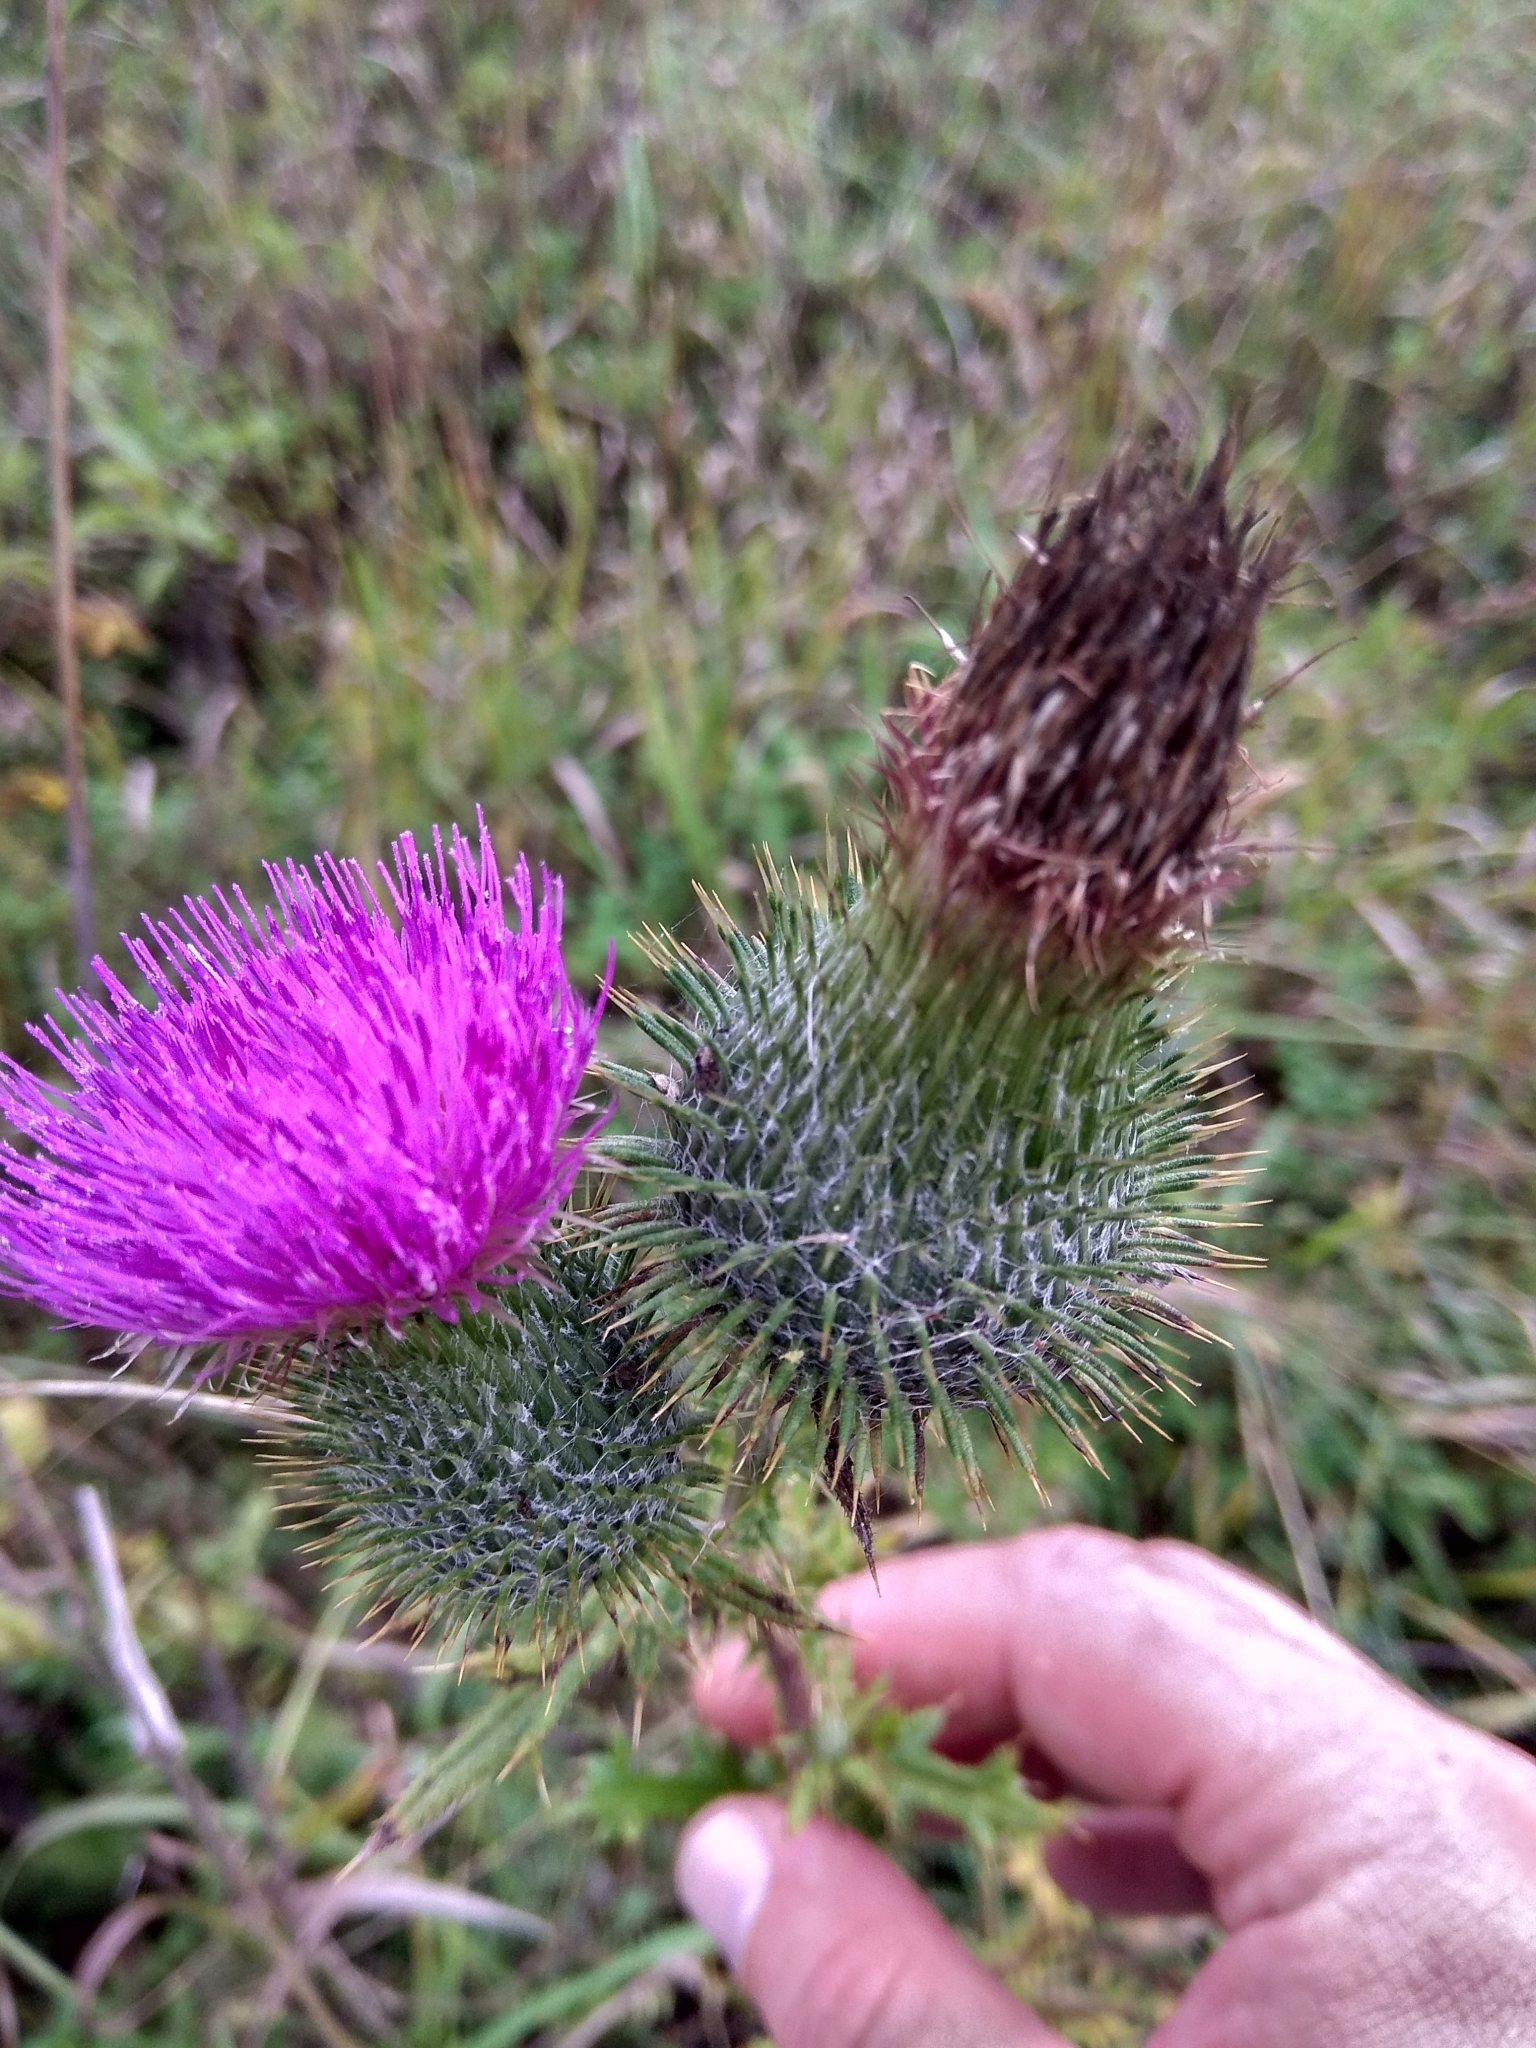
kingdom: Plantae
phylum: Tracheophyta
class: Magnoliopsida
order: Asterales
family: Asteraceae
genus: Cirsium
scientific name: Cirsium vulgare
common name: Bull thistle
